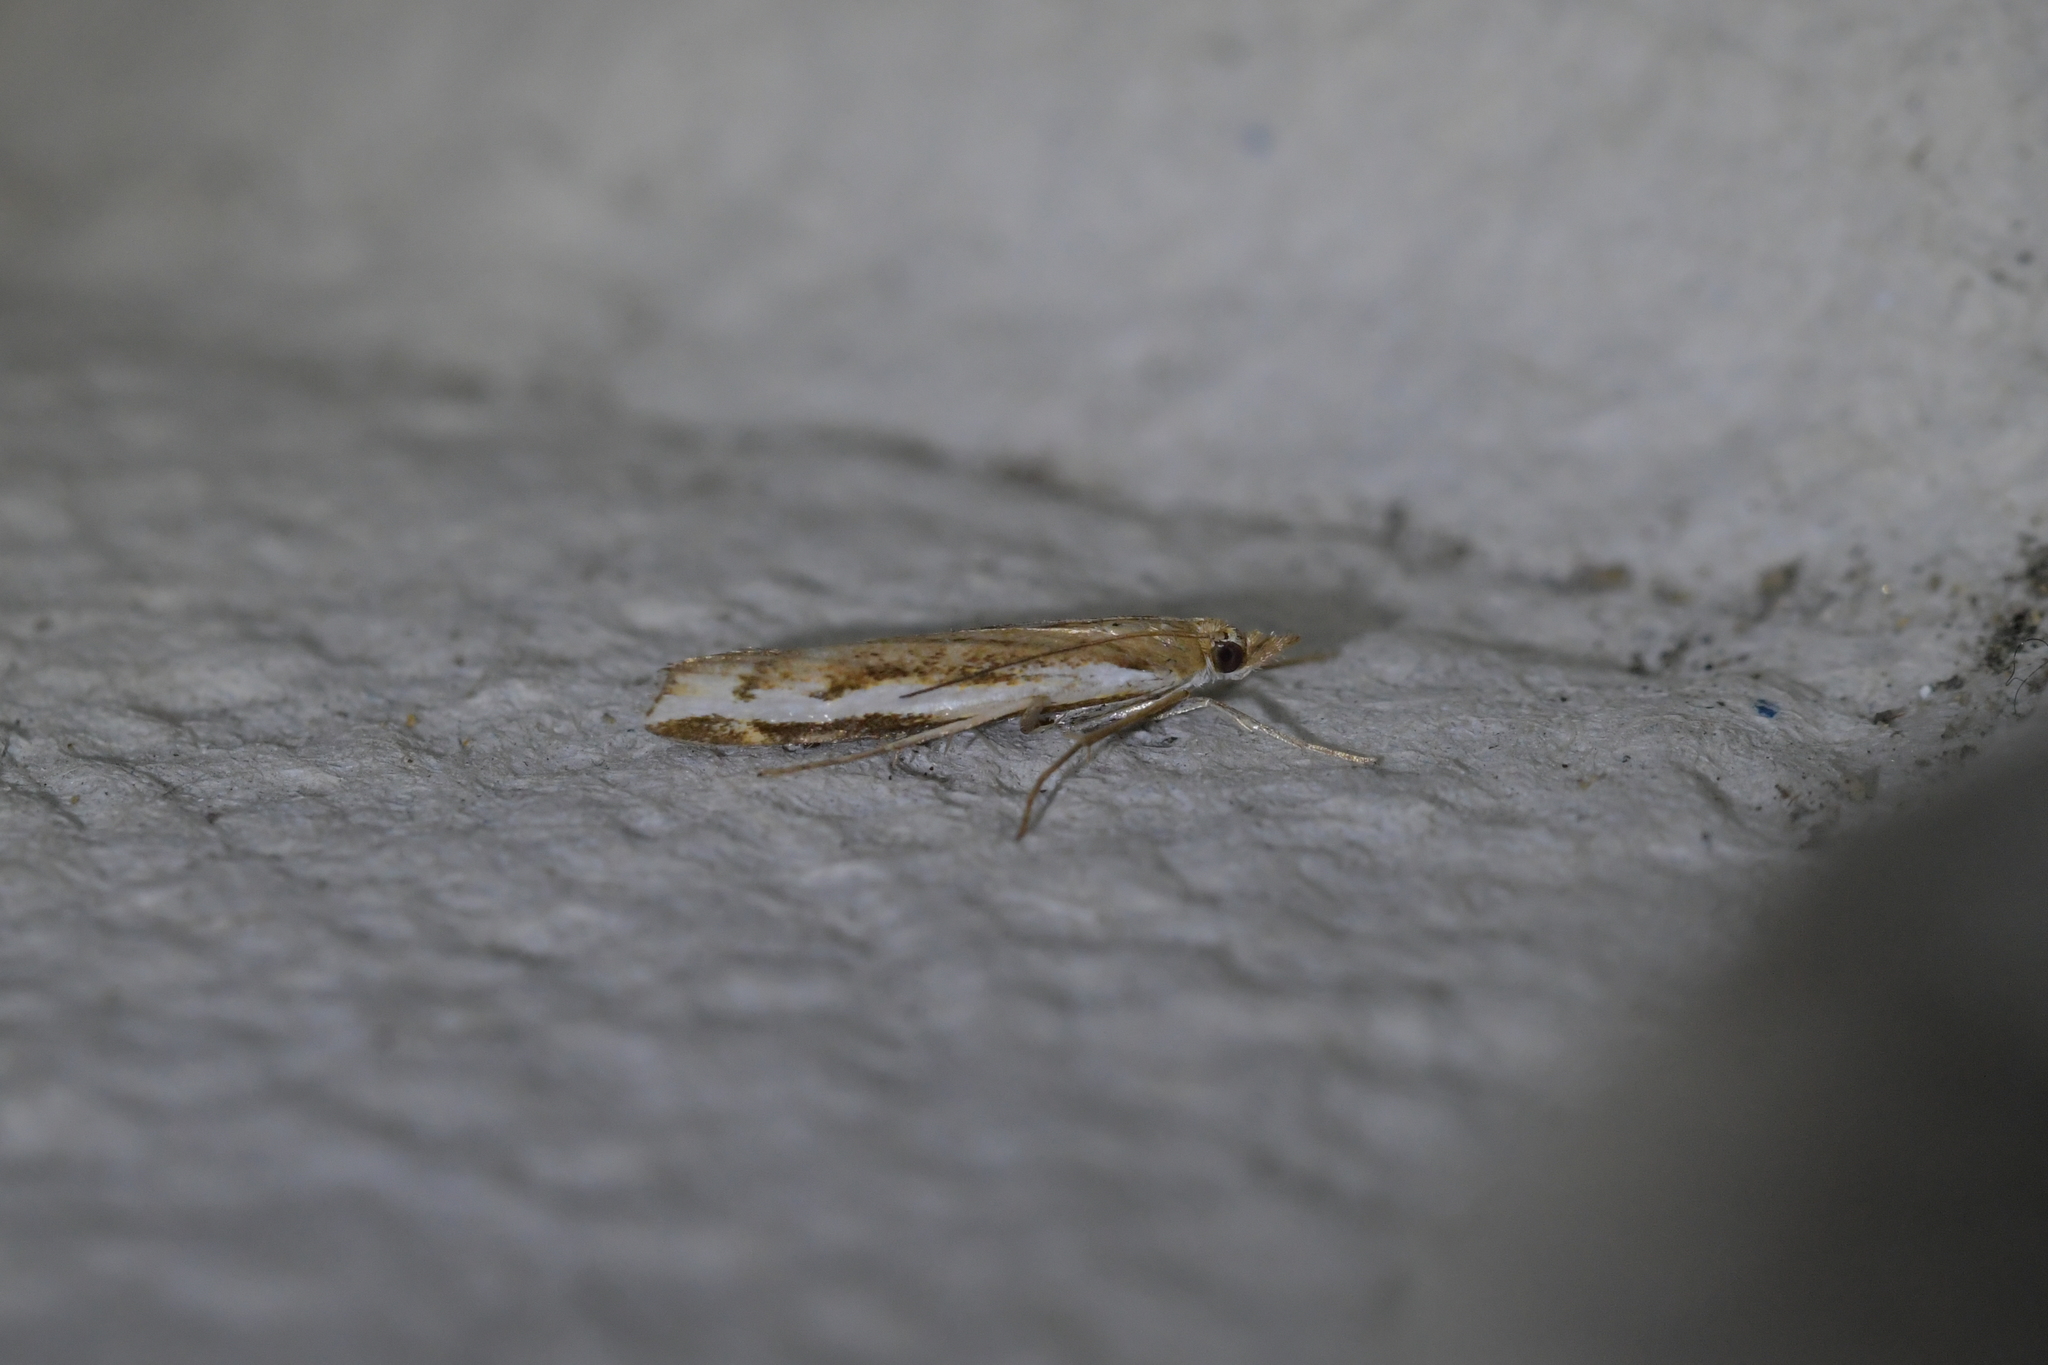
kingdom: Animalia
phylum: Arthropoda
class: Insecta
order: Lepidoptera
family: Crambidae
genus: Orocrambus
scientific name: Orocrambus flexuosellus
